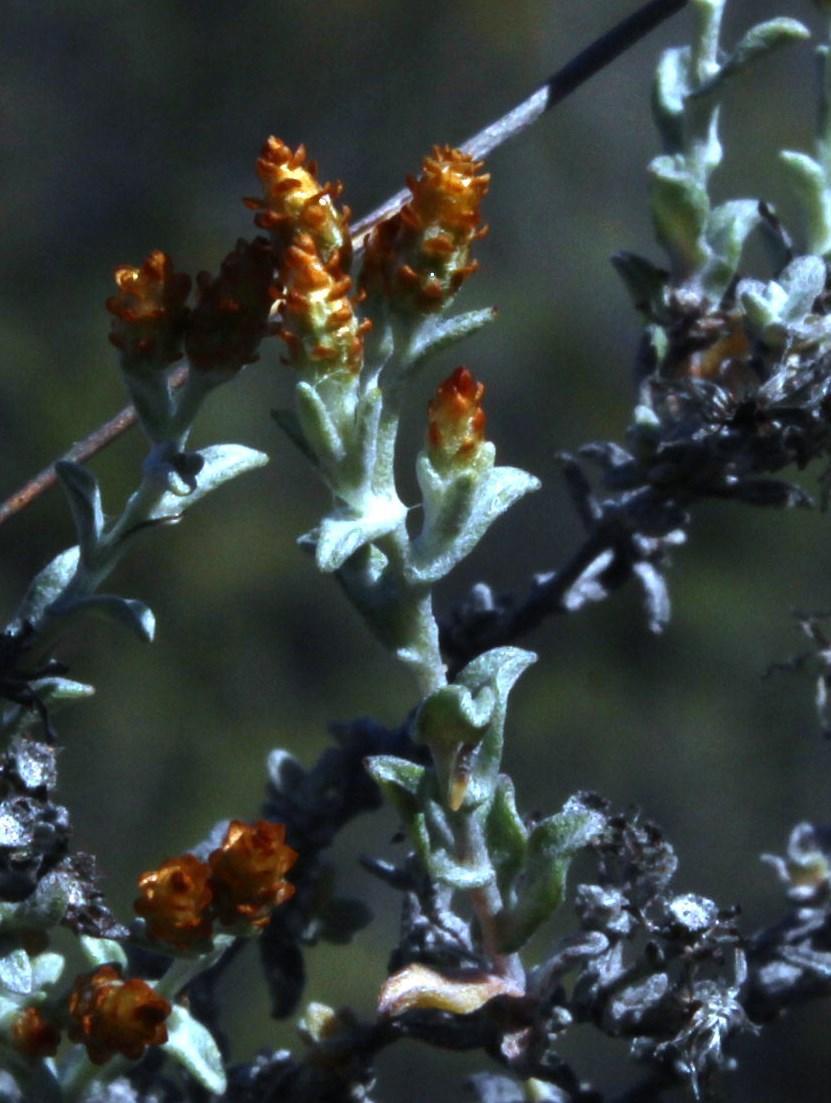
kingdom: Plantae
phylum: Tracheophyta
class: Magnoliopsida
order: Asterales
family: Asteraceae
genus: Syncarpha
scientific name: Syncarpha dregeana
